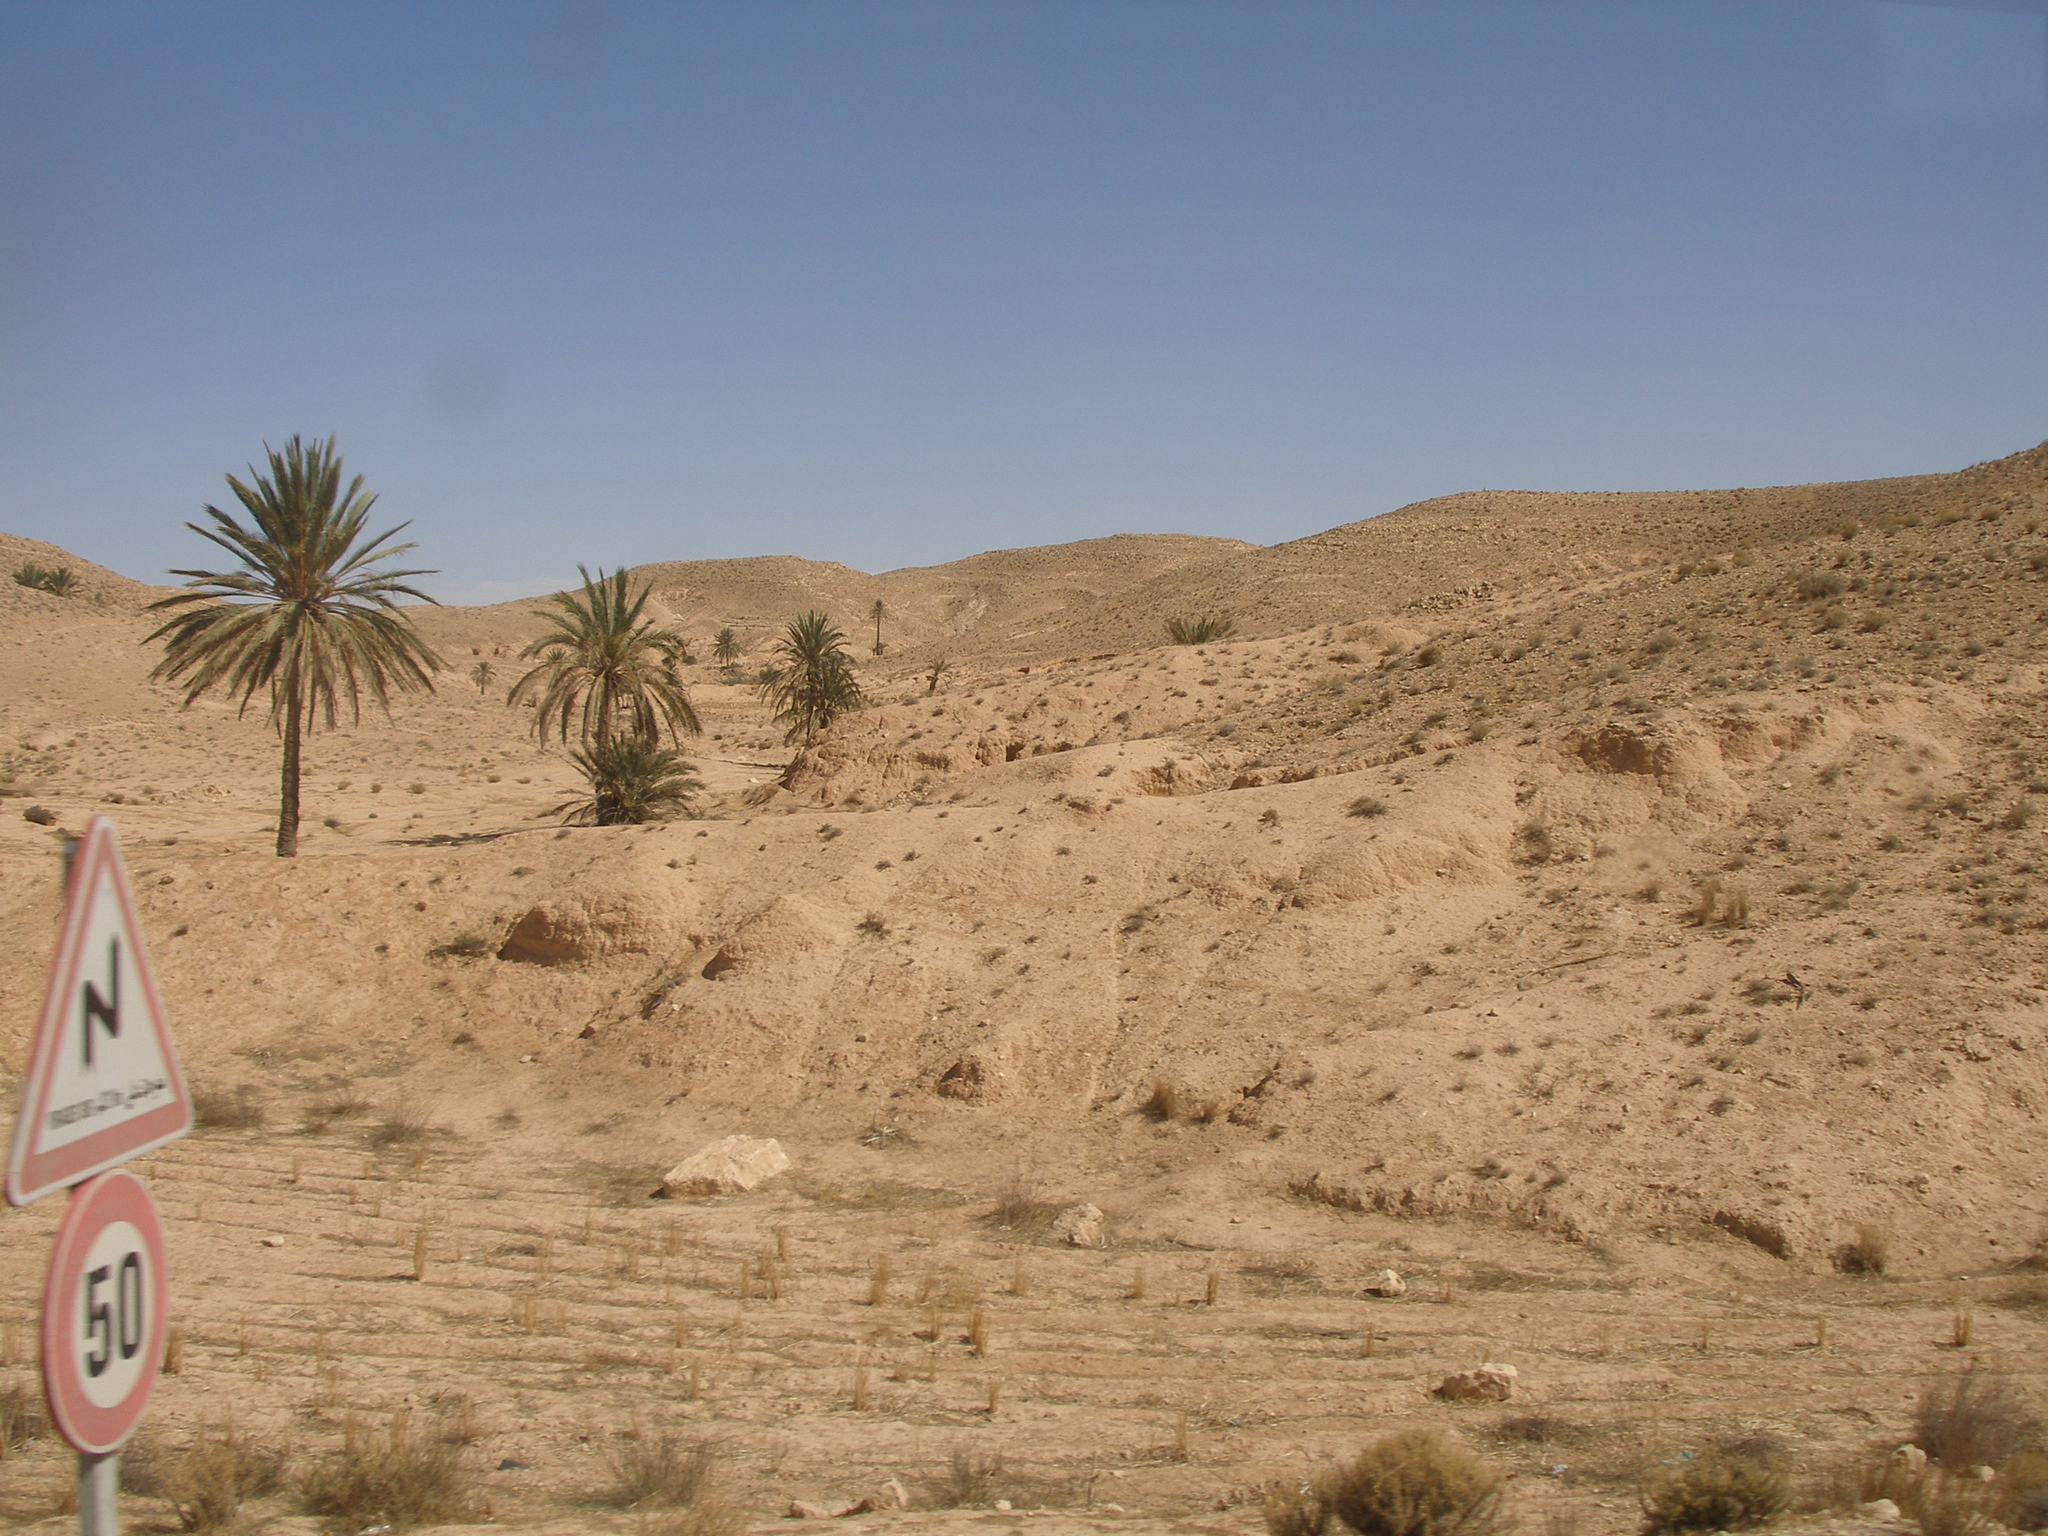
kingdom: Plantae
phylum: Tracheophyta
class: Liliopsida
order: Arecales
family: Arecaceae
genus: Phoenix
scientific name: Phoenix dactylifera
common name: Date palm
